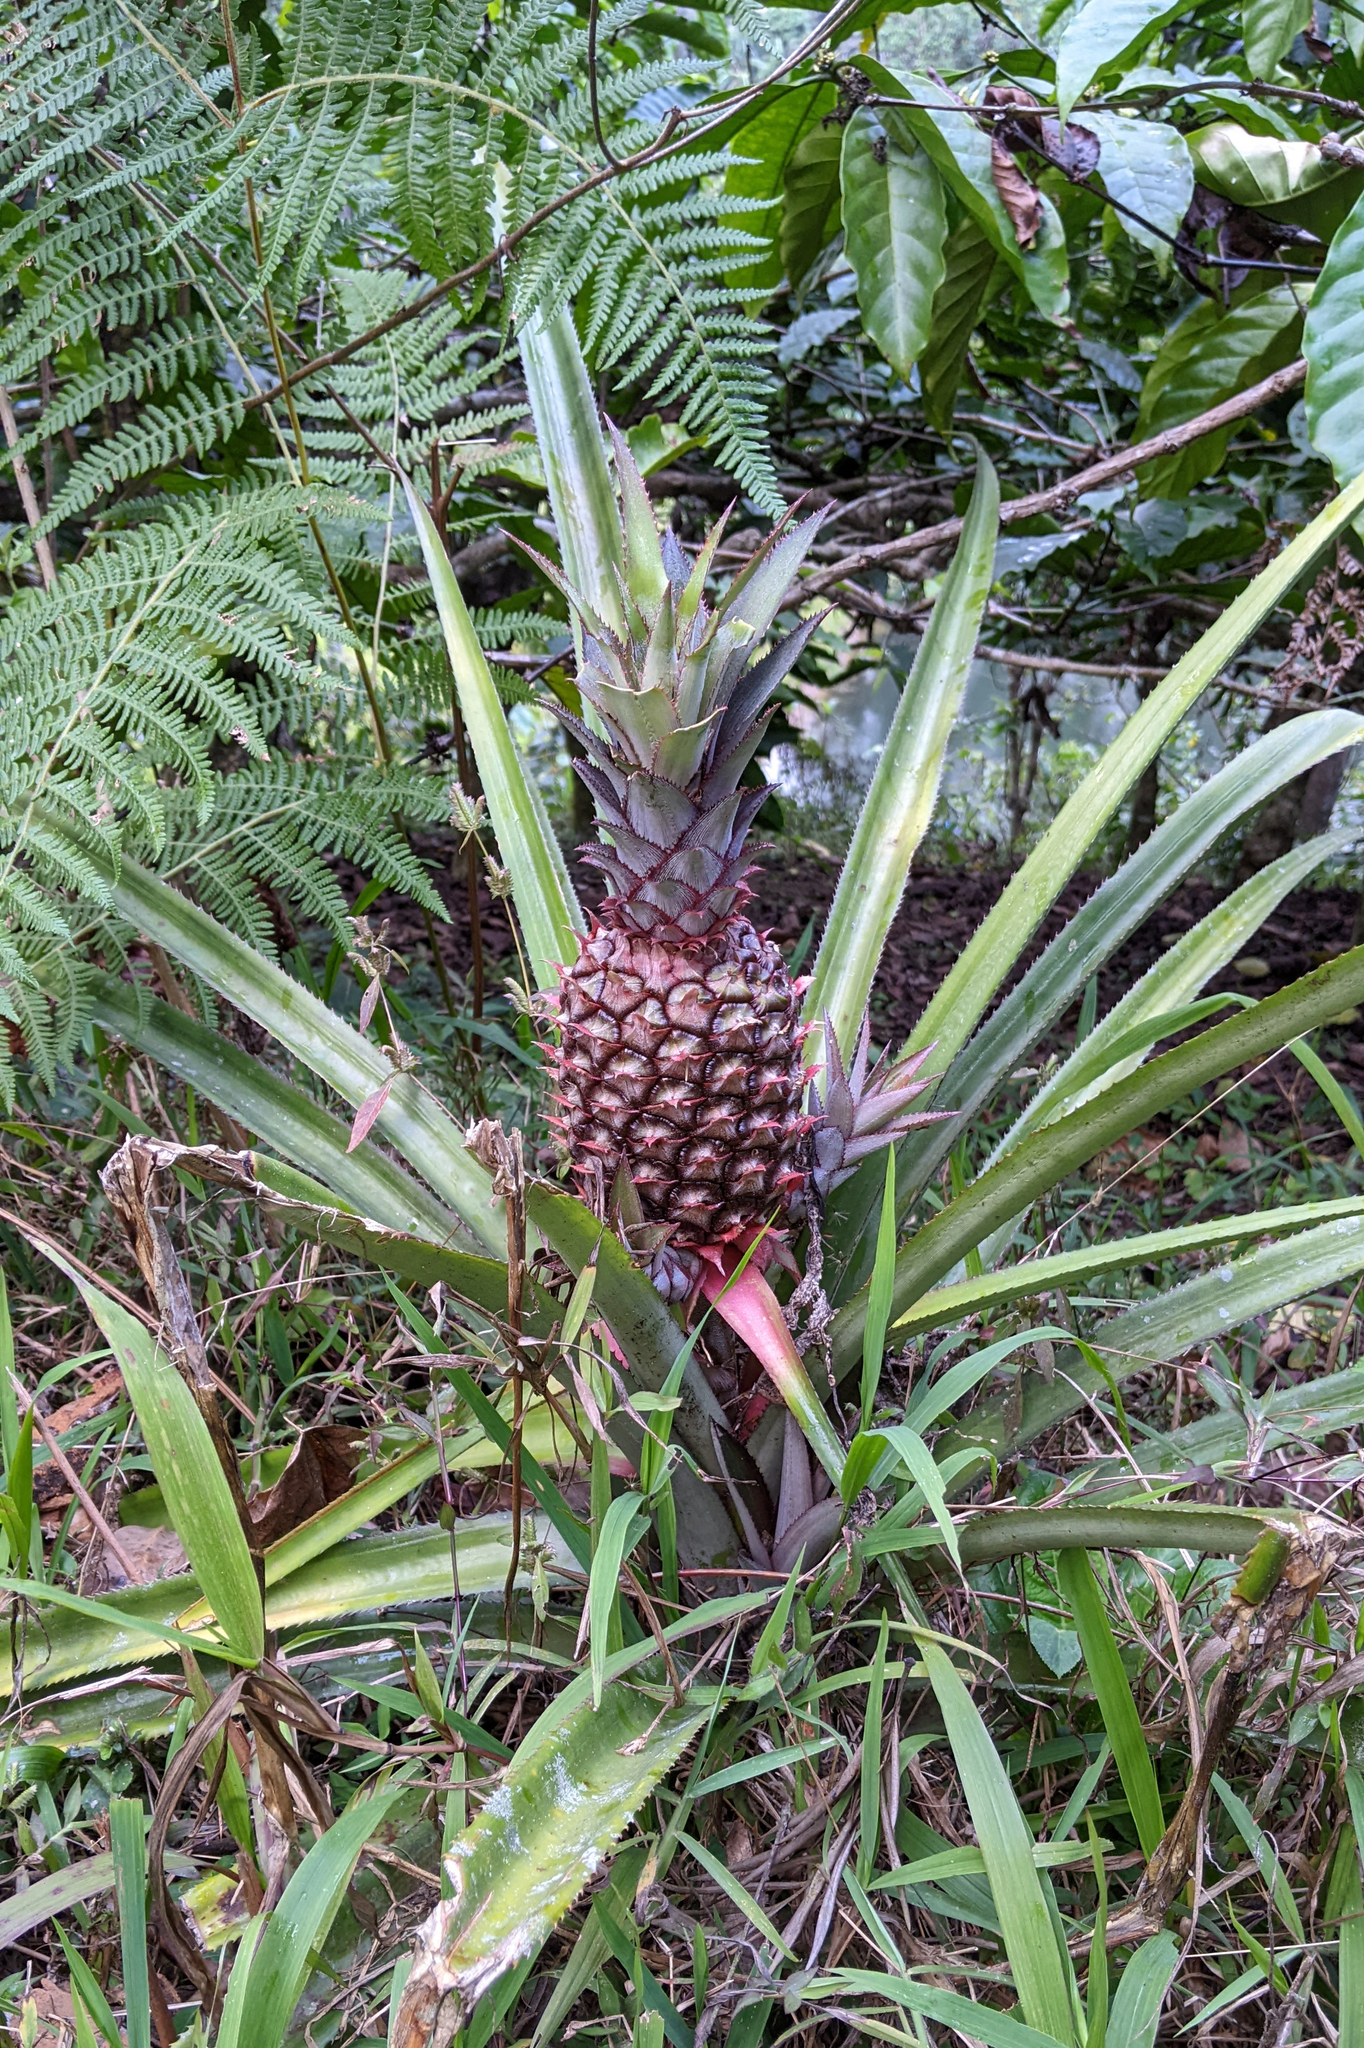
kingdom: Plantae
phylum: Tracheophyta
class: Liliopsida
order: Poales
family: Bromeliaceae
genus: Ananas
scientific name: Ananas comosus
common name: Pineapple
